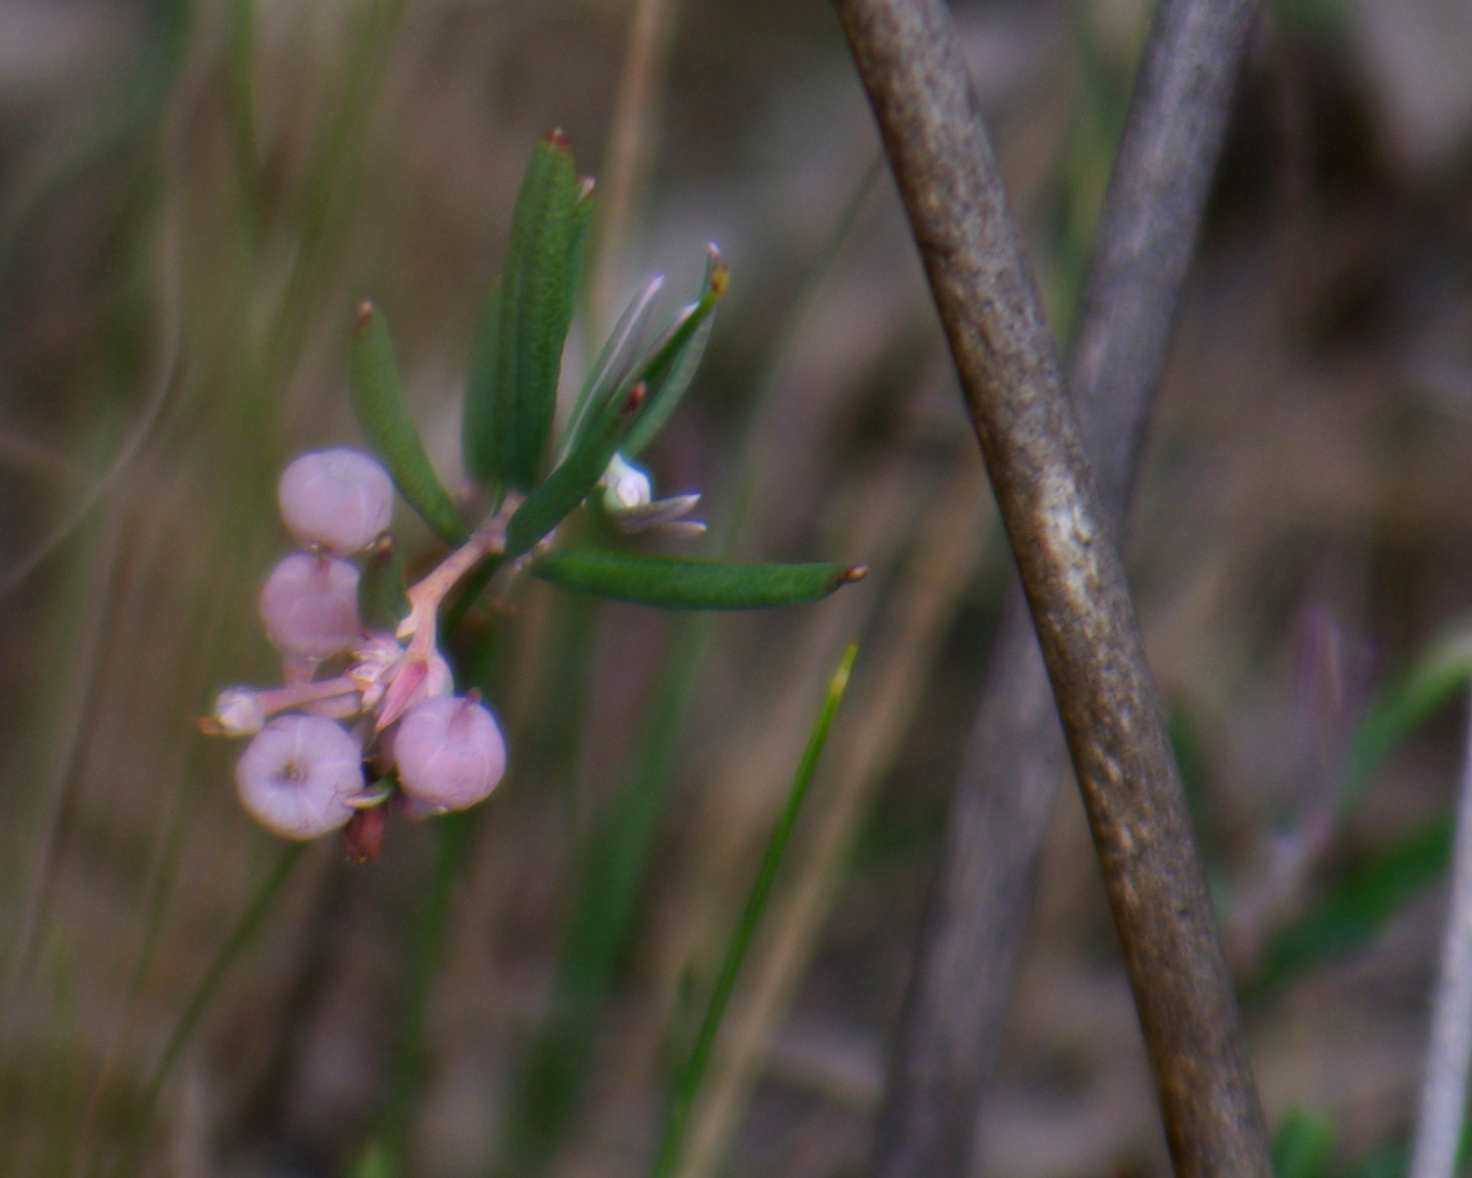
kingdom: Plantae
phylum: Tracheophyta
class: Magnoliopsida
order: Ericales
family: Ericaceae
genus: Andromeda
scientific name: Andromeda polifolia
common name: Bog-rosemary
